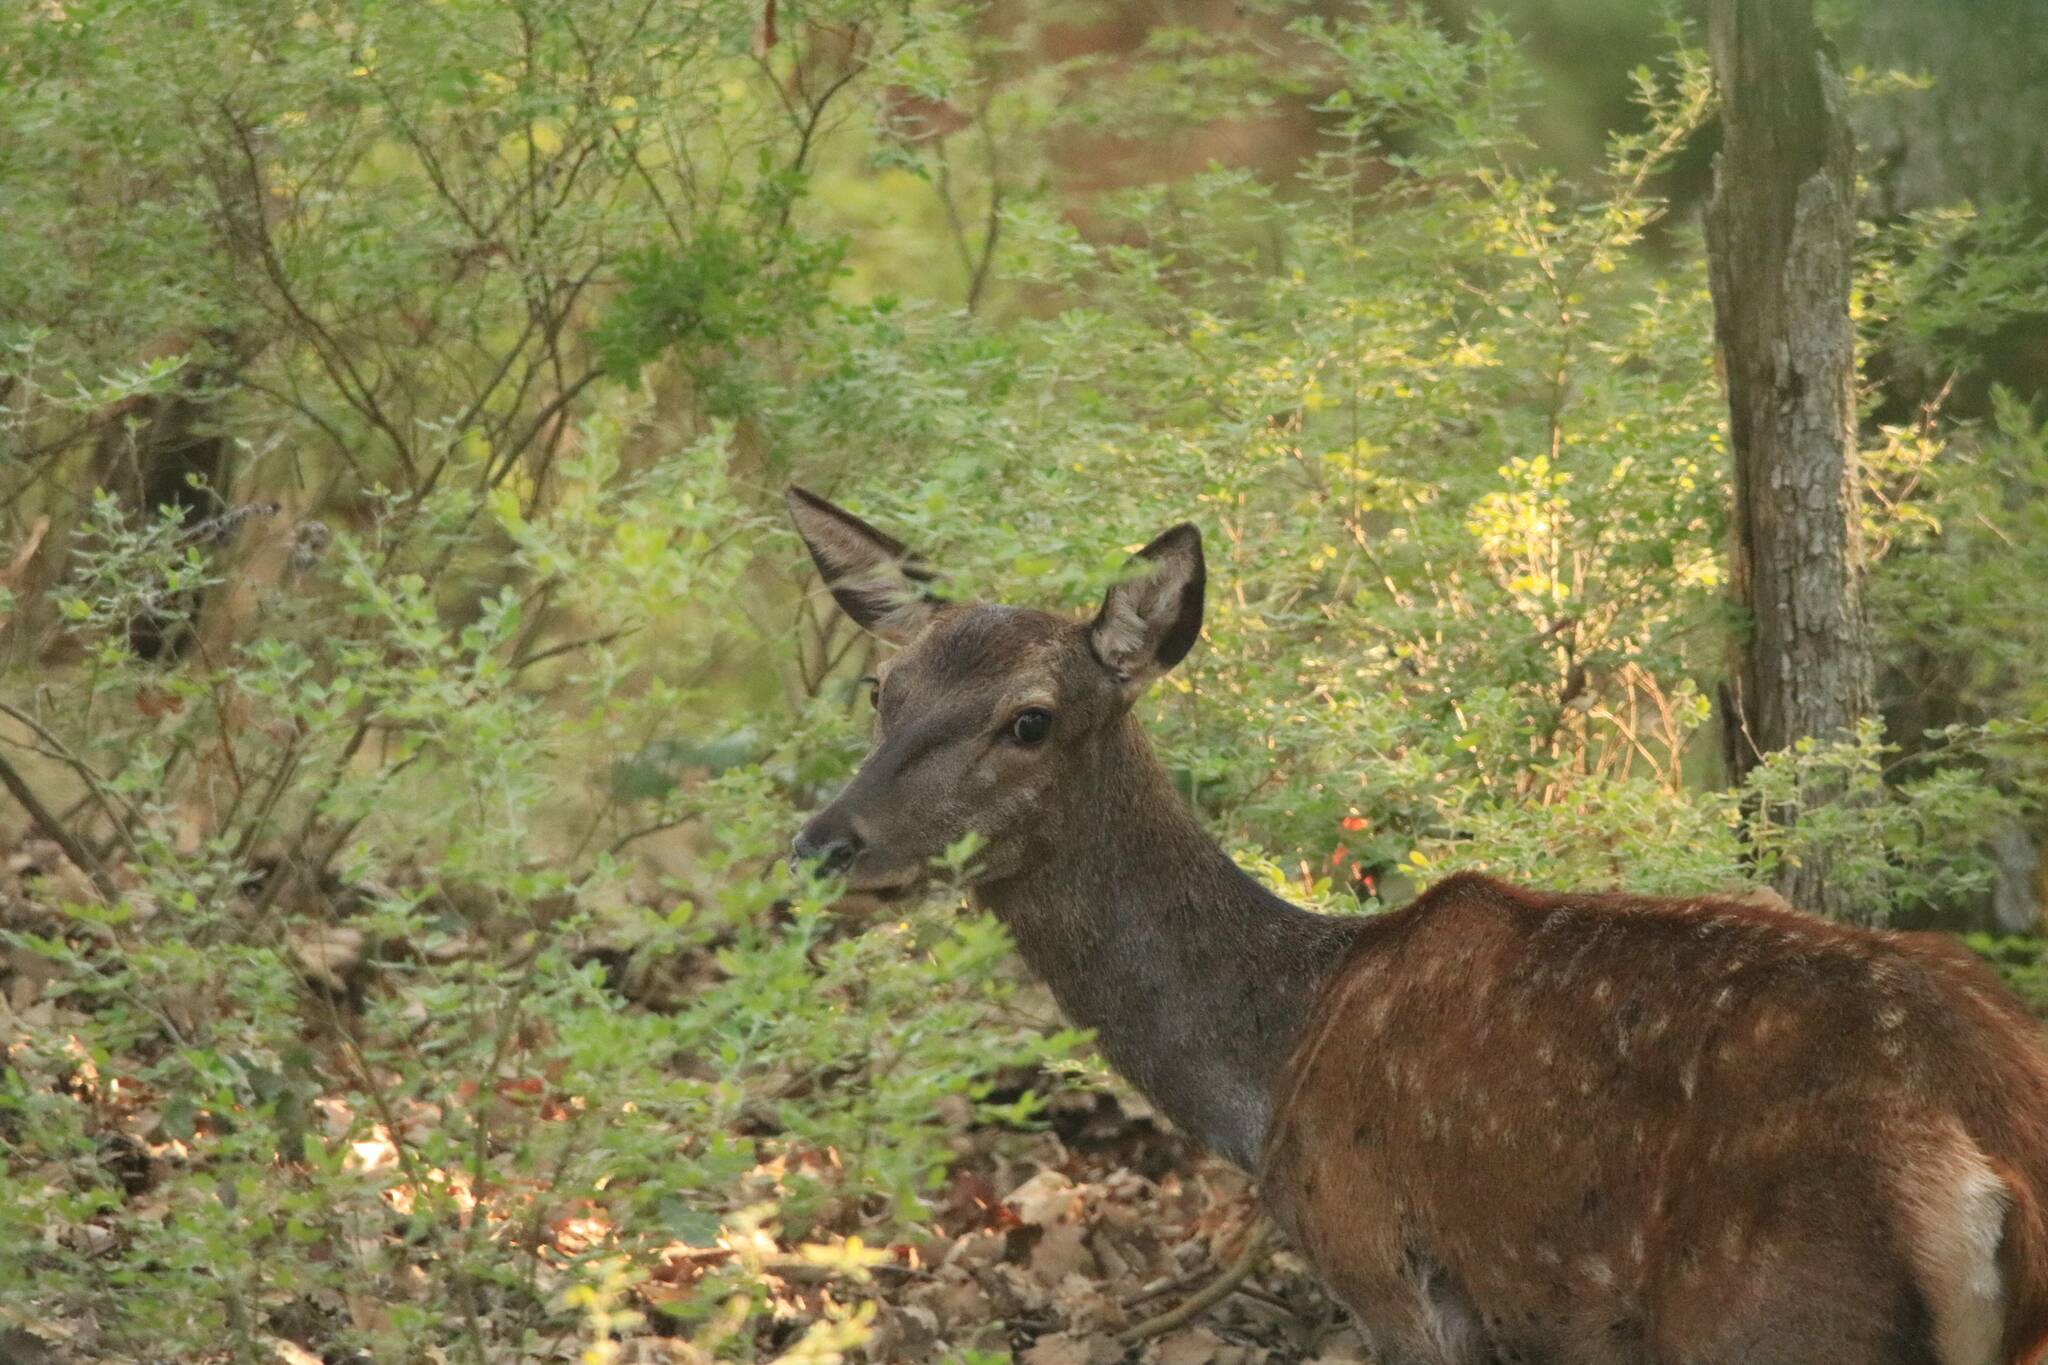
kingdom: Animalia
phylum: Chordata
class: Mammalia
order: Artiodactyla
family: Cervidae
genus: Cervus
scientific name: Cervus elaphus
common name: Red deer
